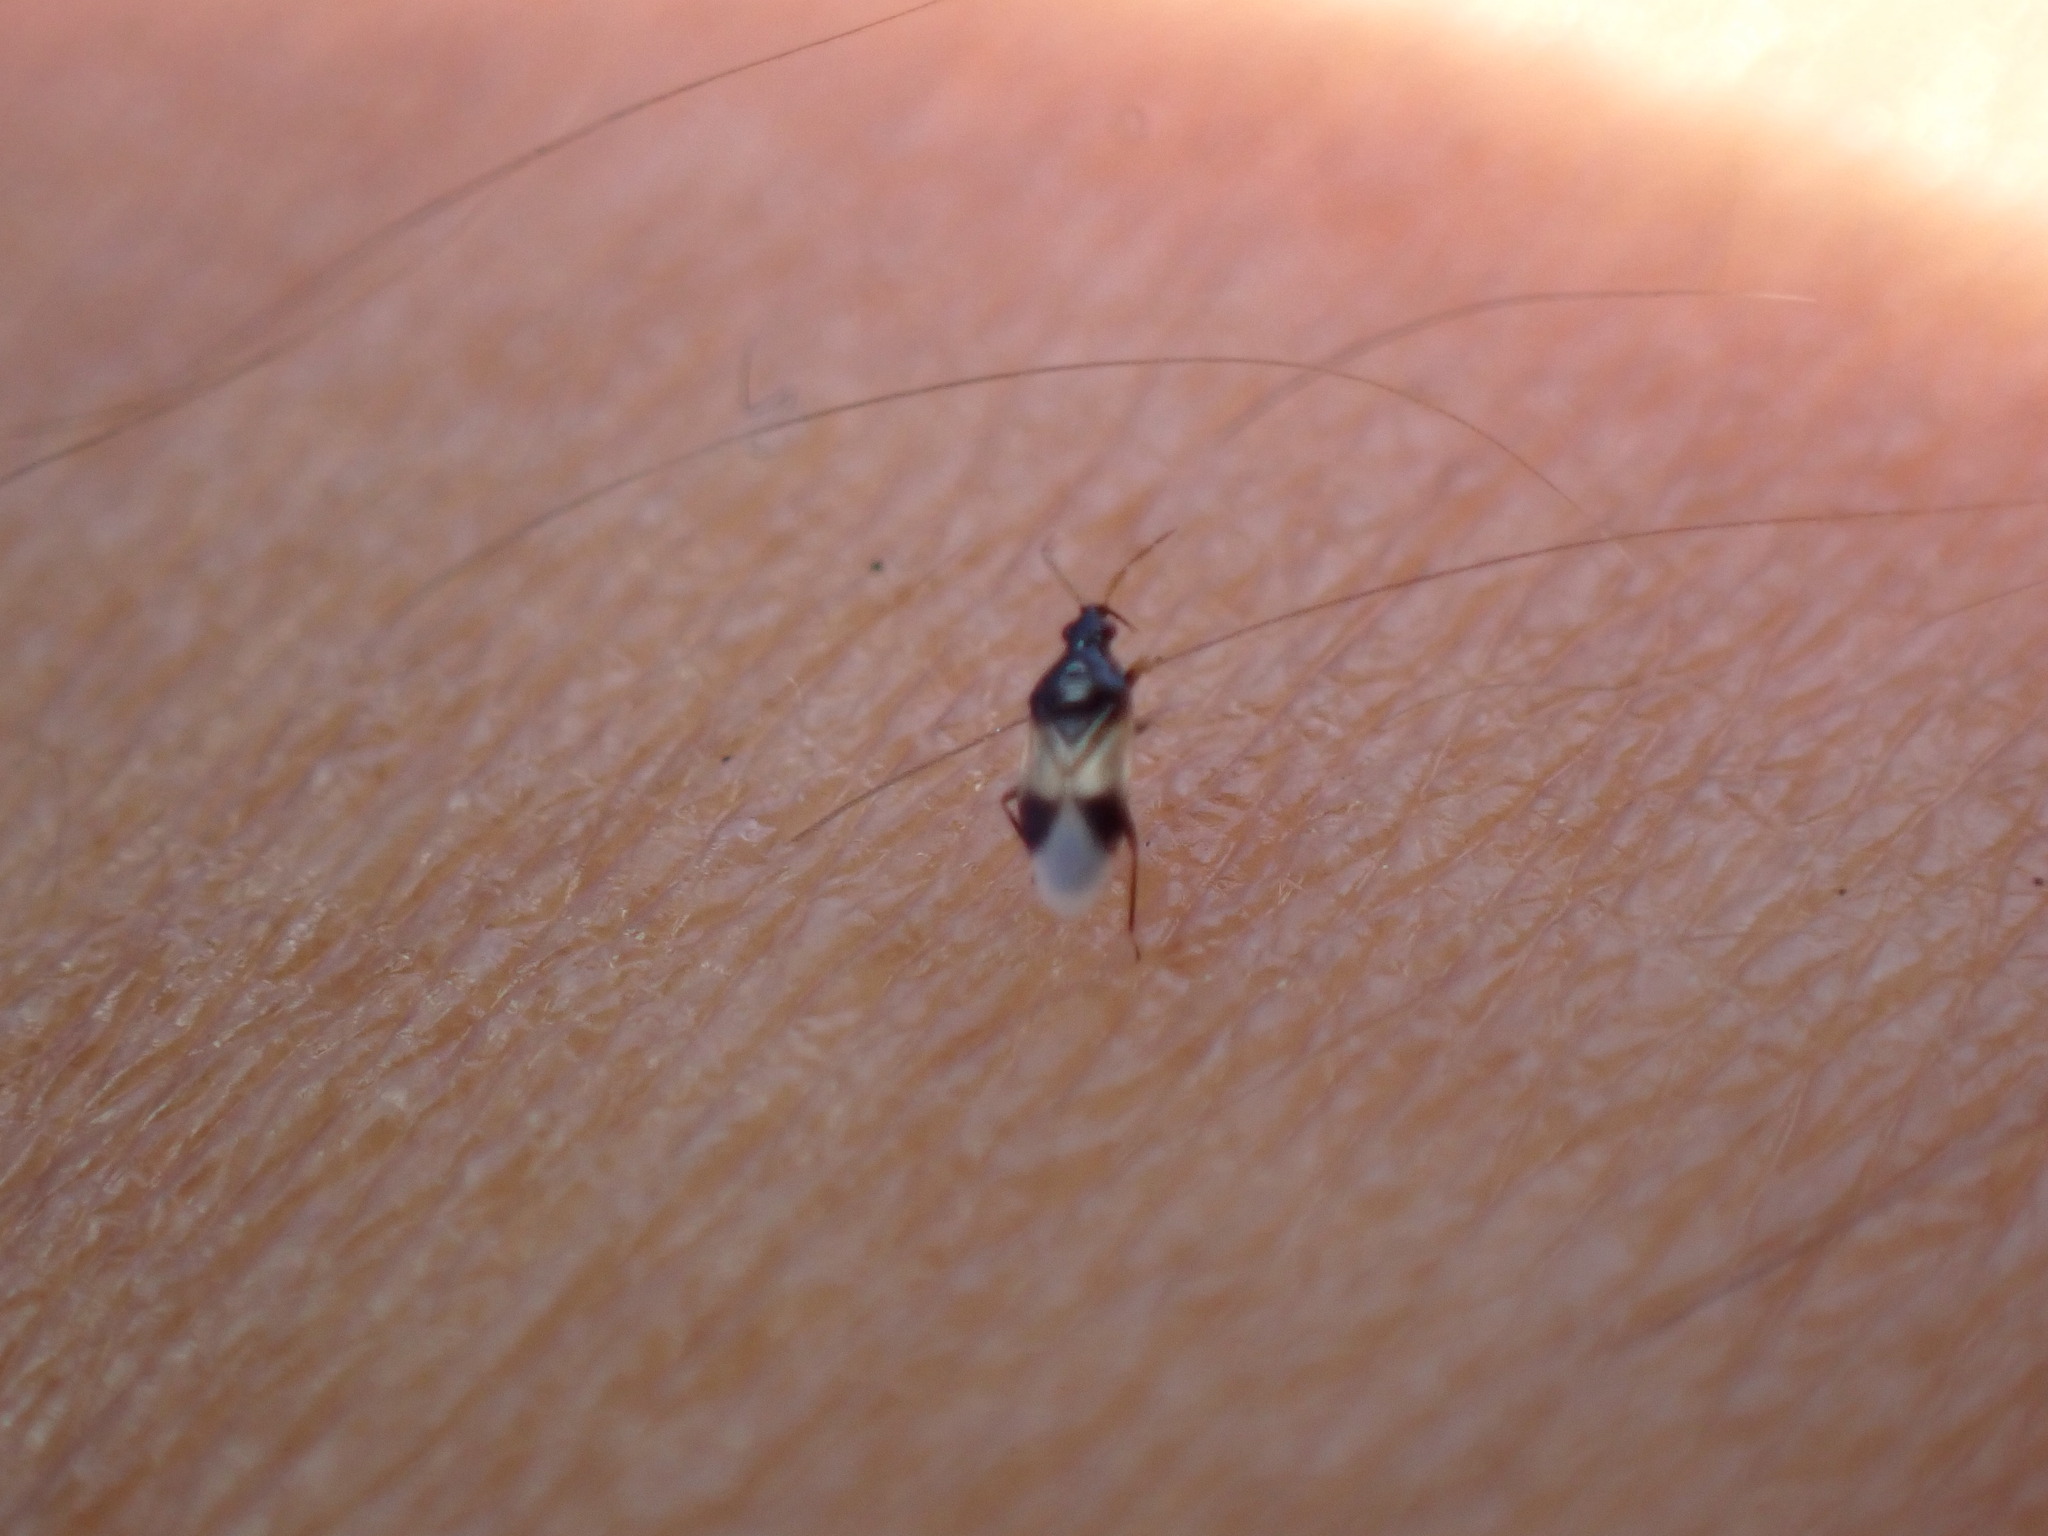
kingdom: Animalia
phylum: Arthropoda
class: Insecta
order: Hemiptera
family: Anthocoridae
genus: Orius
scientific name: Orius insidiosus
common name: Insidious flower bug
